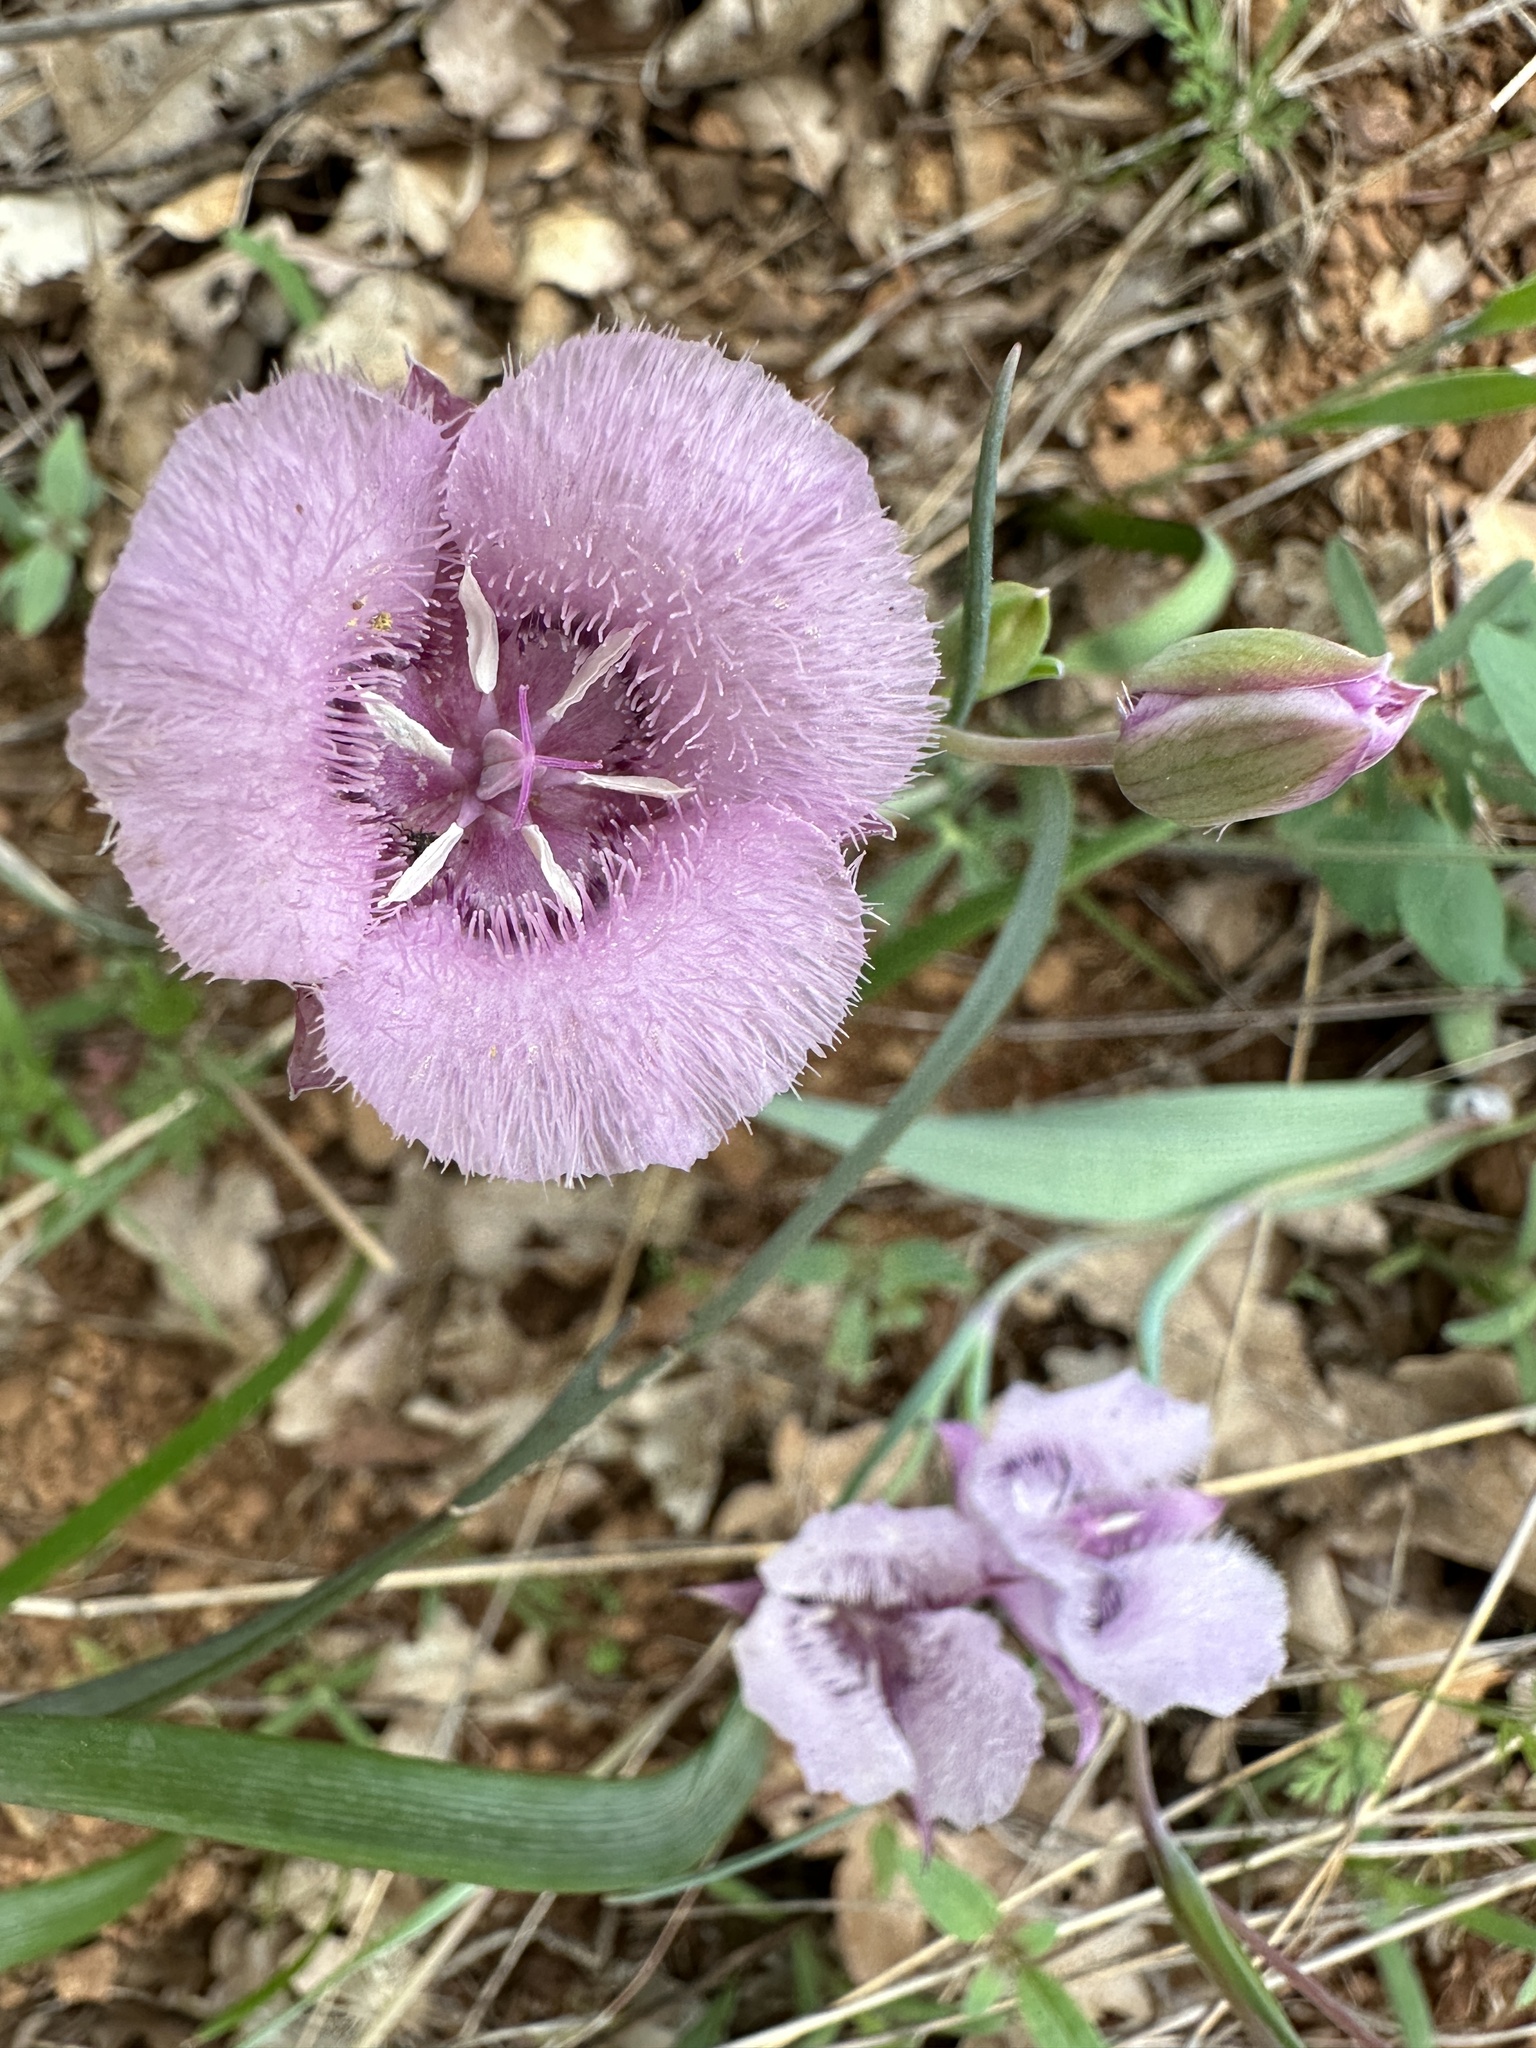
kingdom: Plantae
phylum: Tracheophyta
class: Liliopsida
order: Liliales
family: Liliaceae
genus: Calochortus
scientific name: Calochortus tolmiei
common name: Pussy-ears
